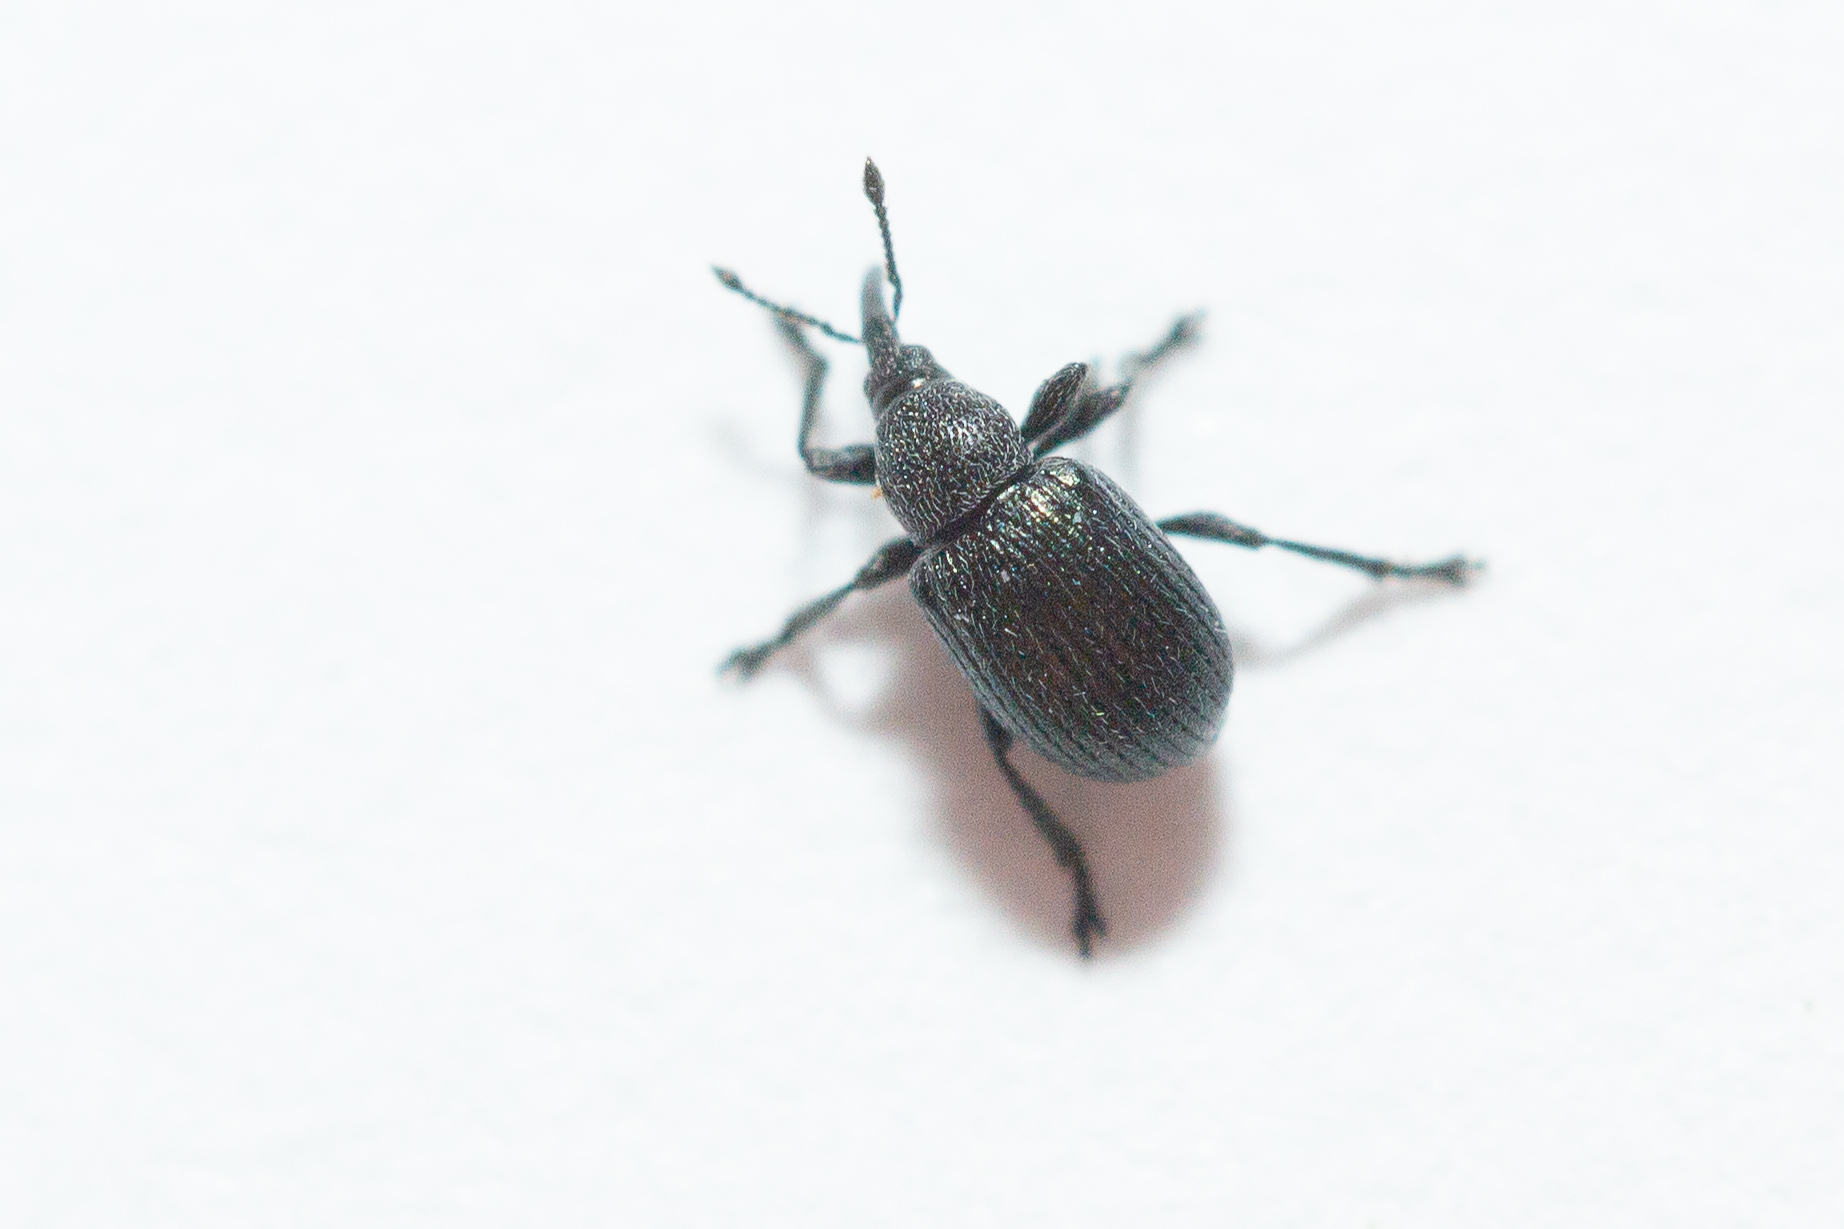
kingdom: Animalia
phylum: Arthropoda
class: Insecta
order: Coleoptera
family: Brentidae
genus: Omphalapion
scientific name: Omphalapion hookerorum
